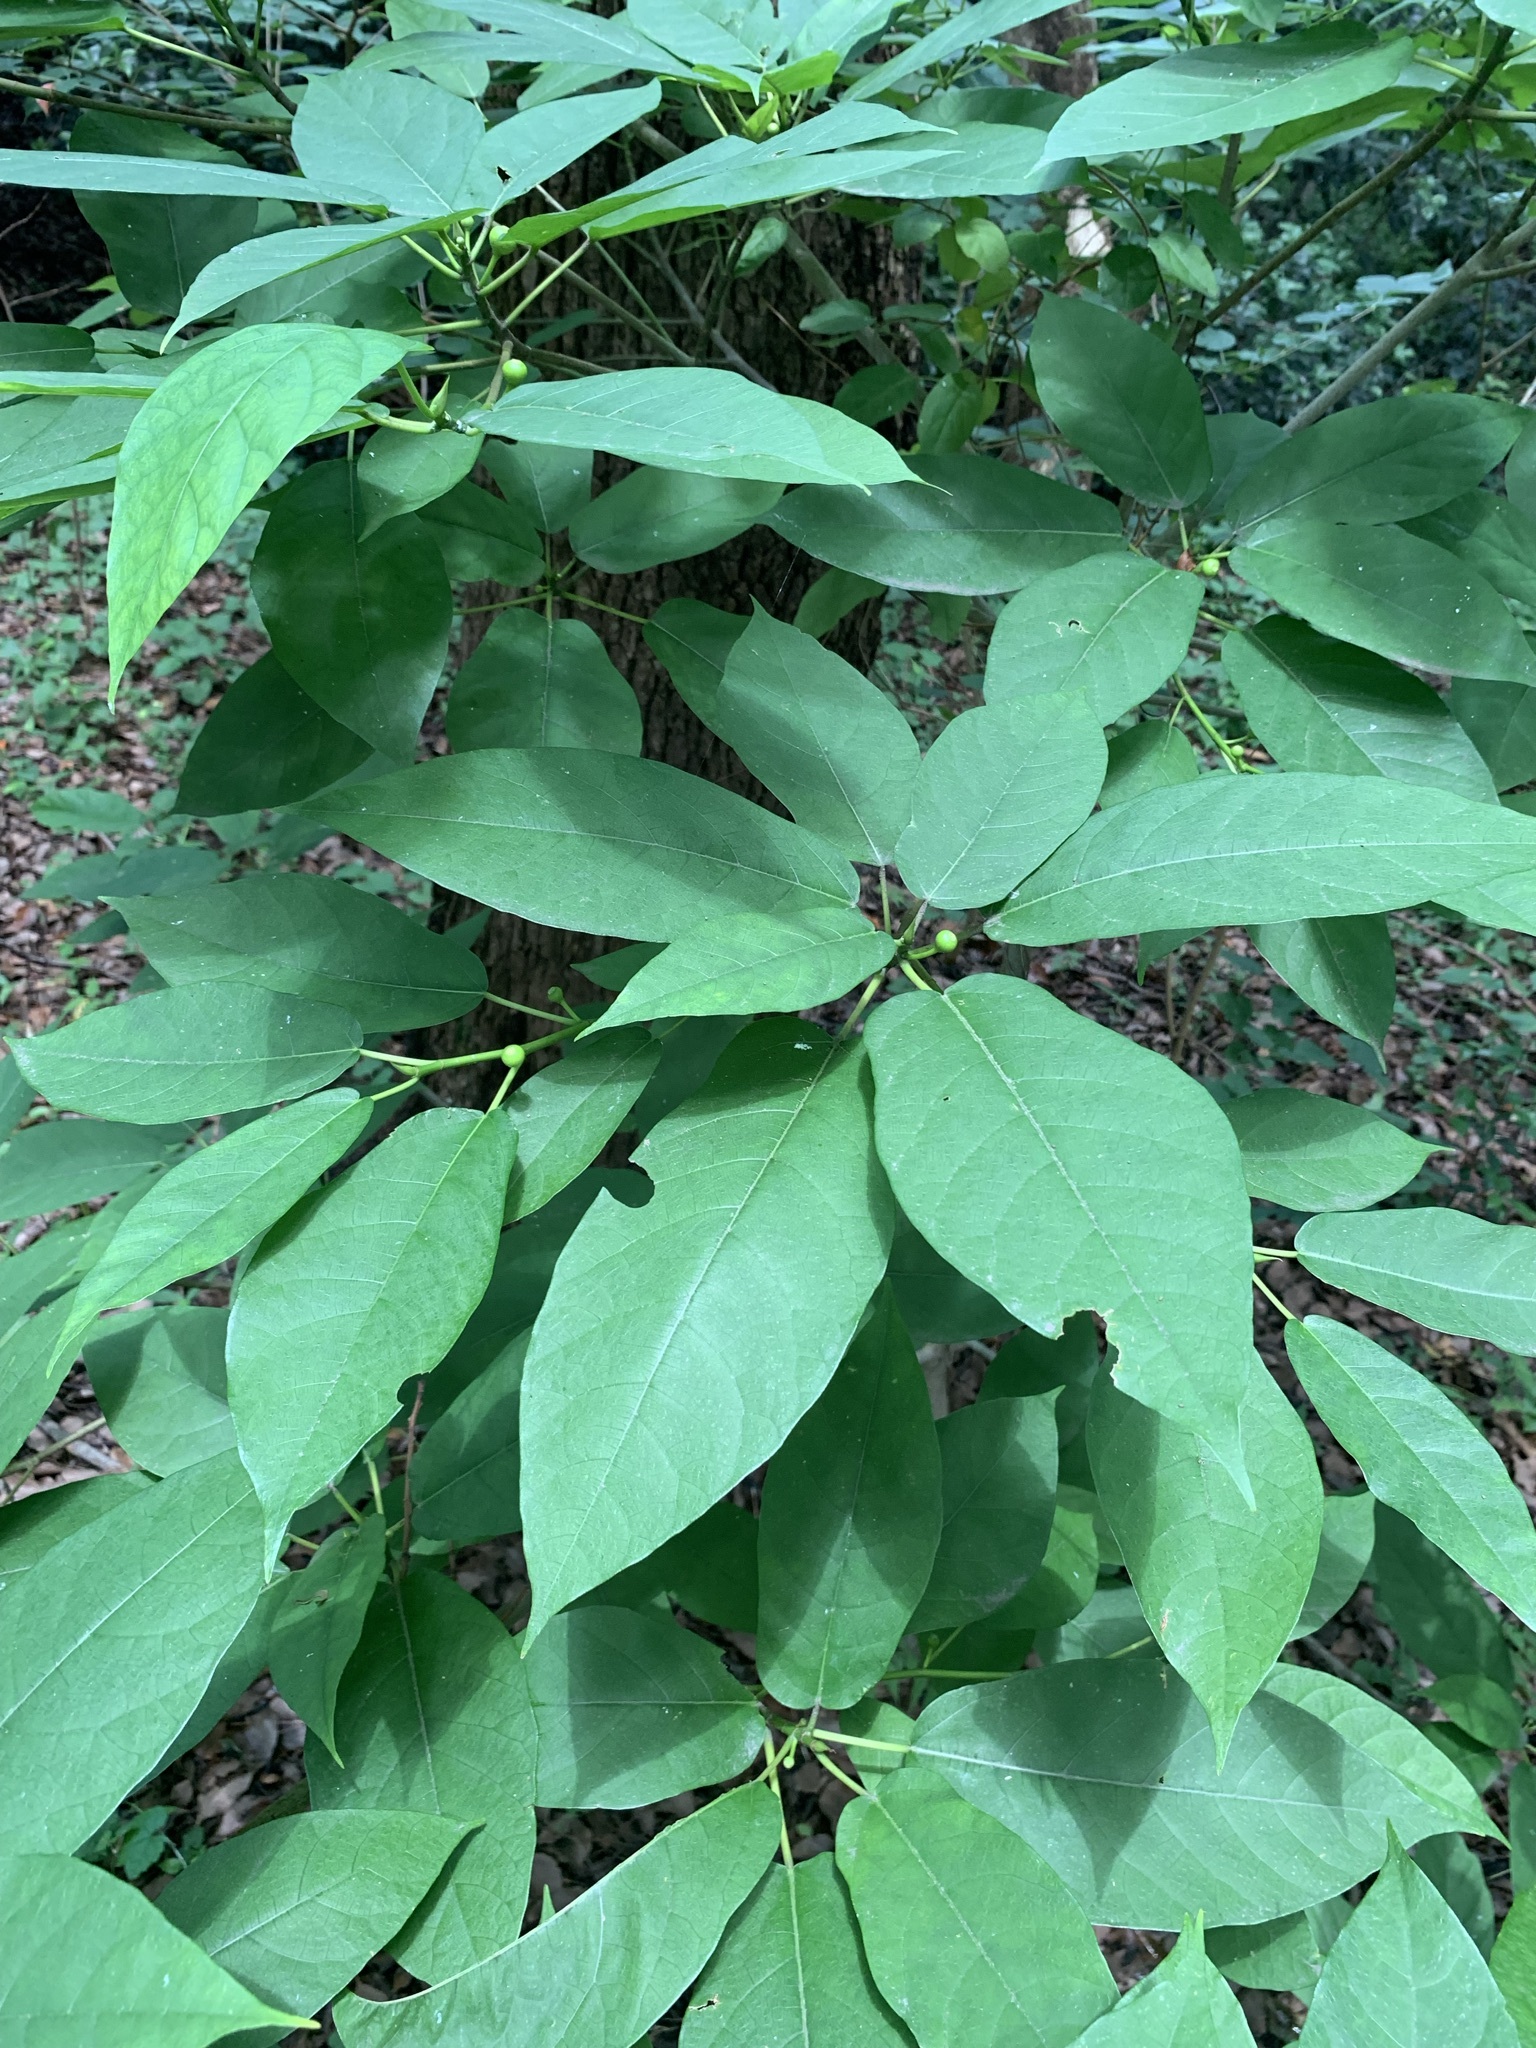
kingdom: Plantae
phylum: Tracheophyta
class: Magnoliopsida
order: Rosales
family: Moraceae
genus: Ficus
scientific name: Ficus erecta
